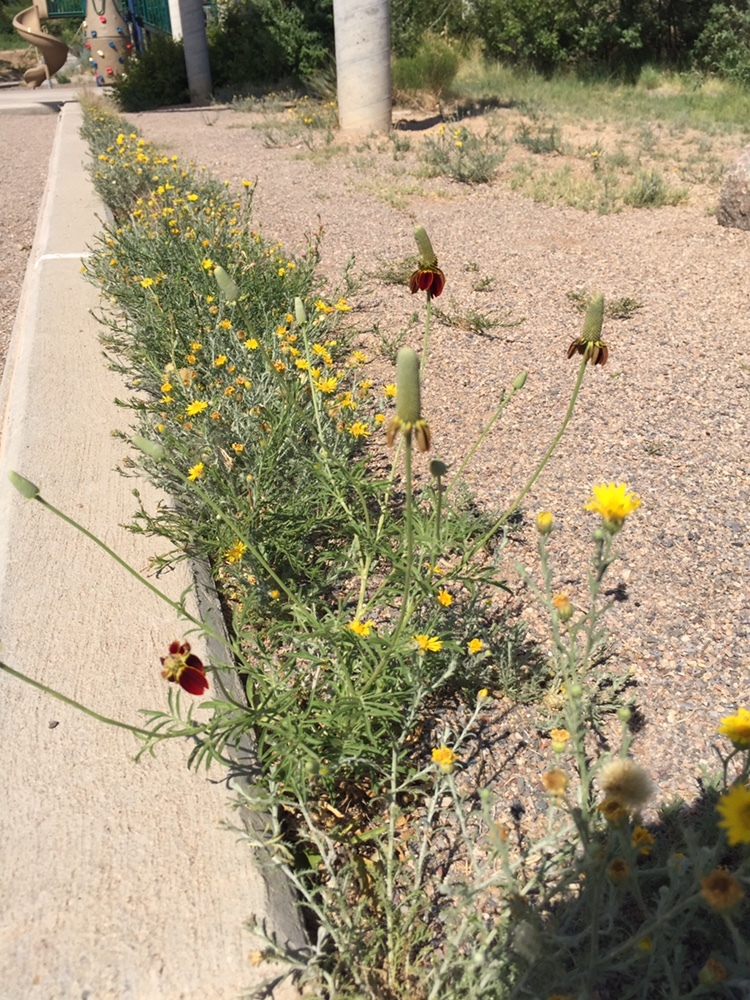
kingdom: Plantae
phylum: Tracheophyta
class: Magnoliopsida
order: Asterales
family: Asteraceae
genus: Ratibida
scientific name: Ratibida columnifera
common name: Prairie coneflower
